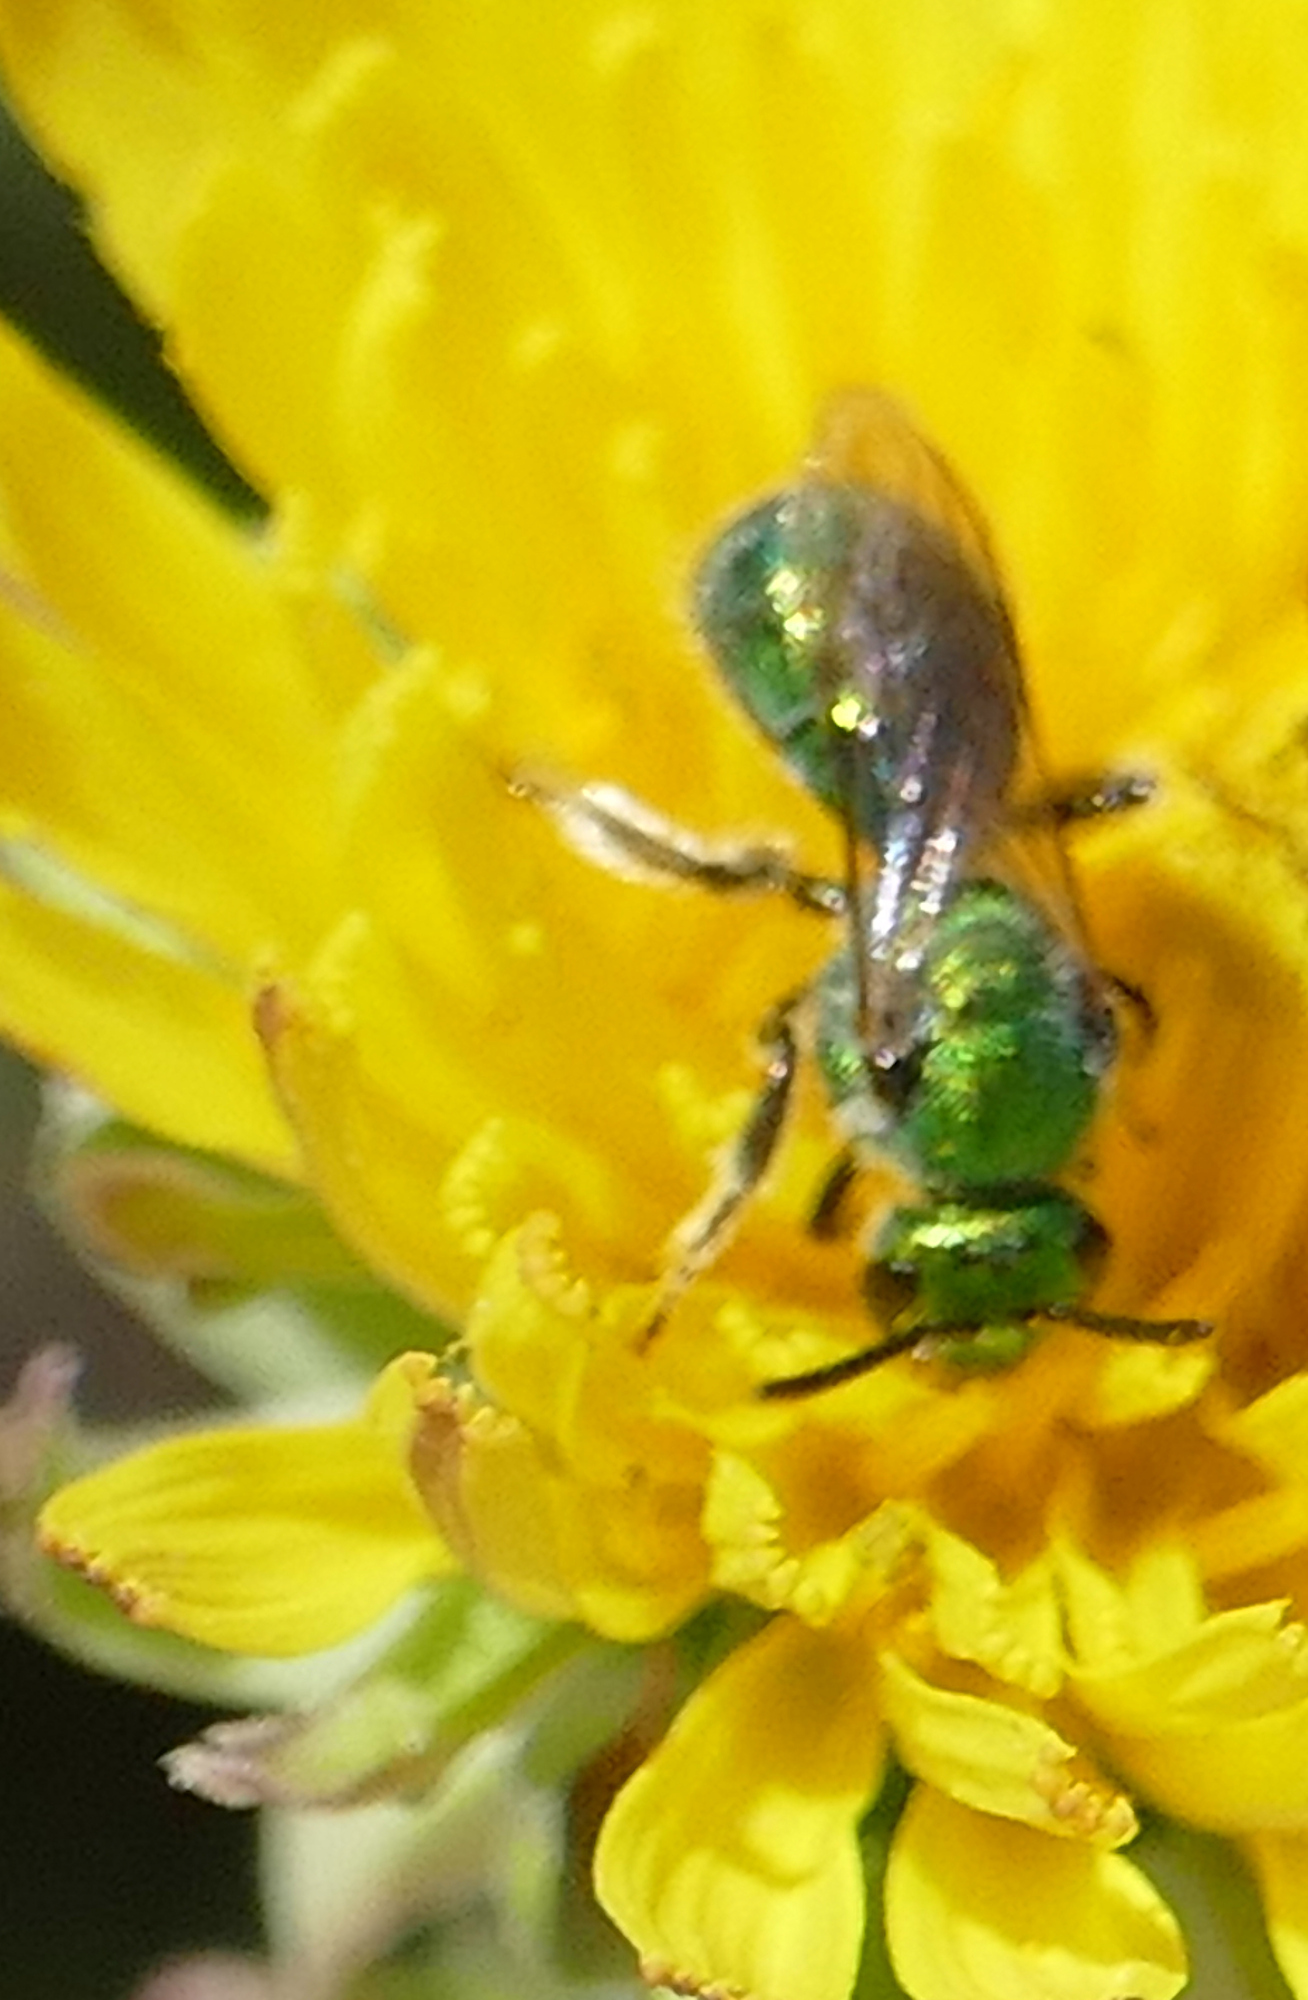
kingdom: Animalia
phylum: Arthropoda
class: Insecta
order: Hymenoptera
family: Halictidae
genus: Augochlorella
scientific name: Augochlorella
